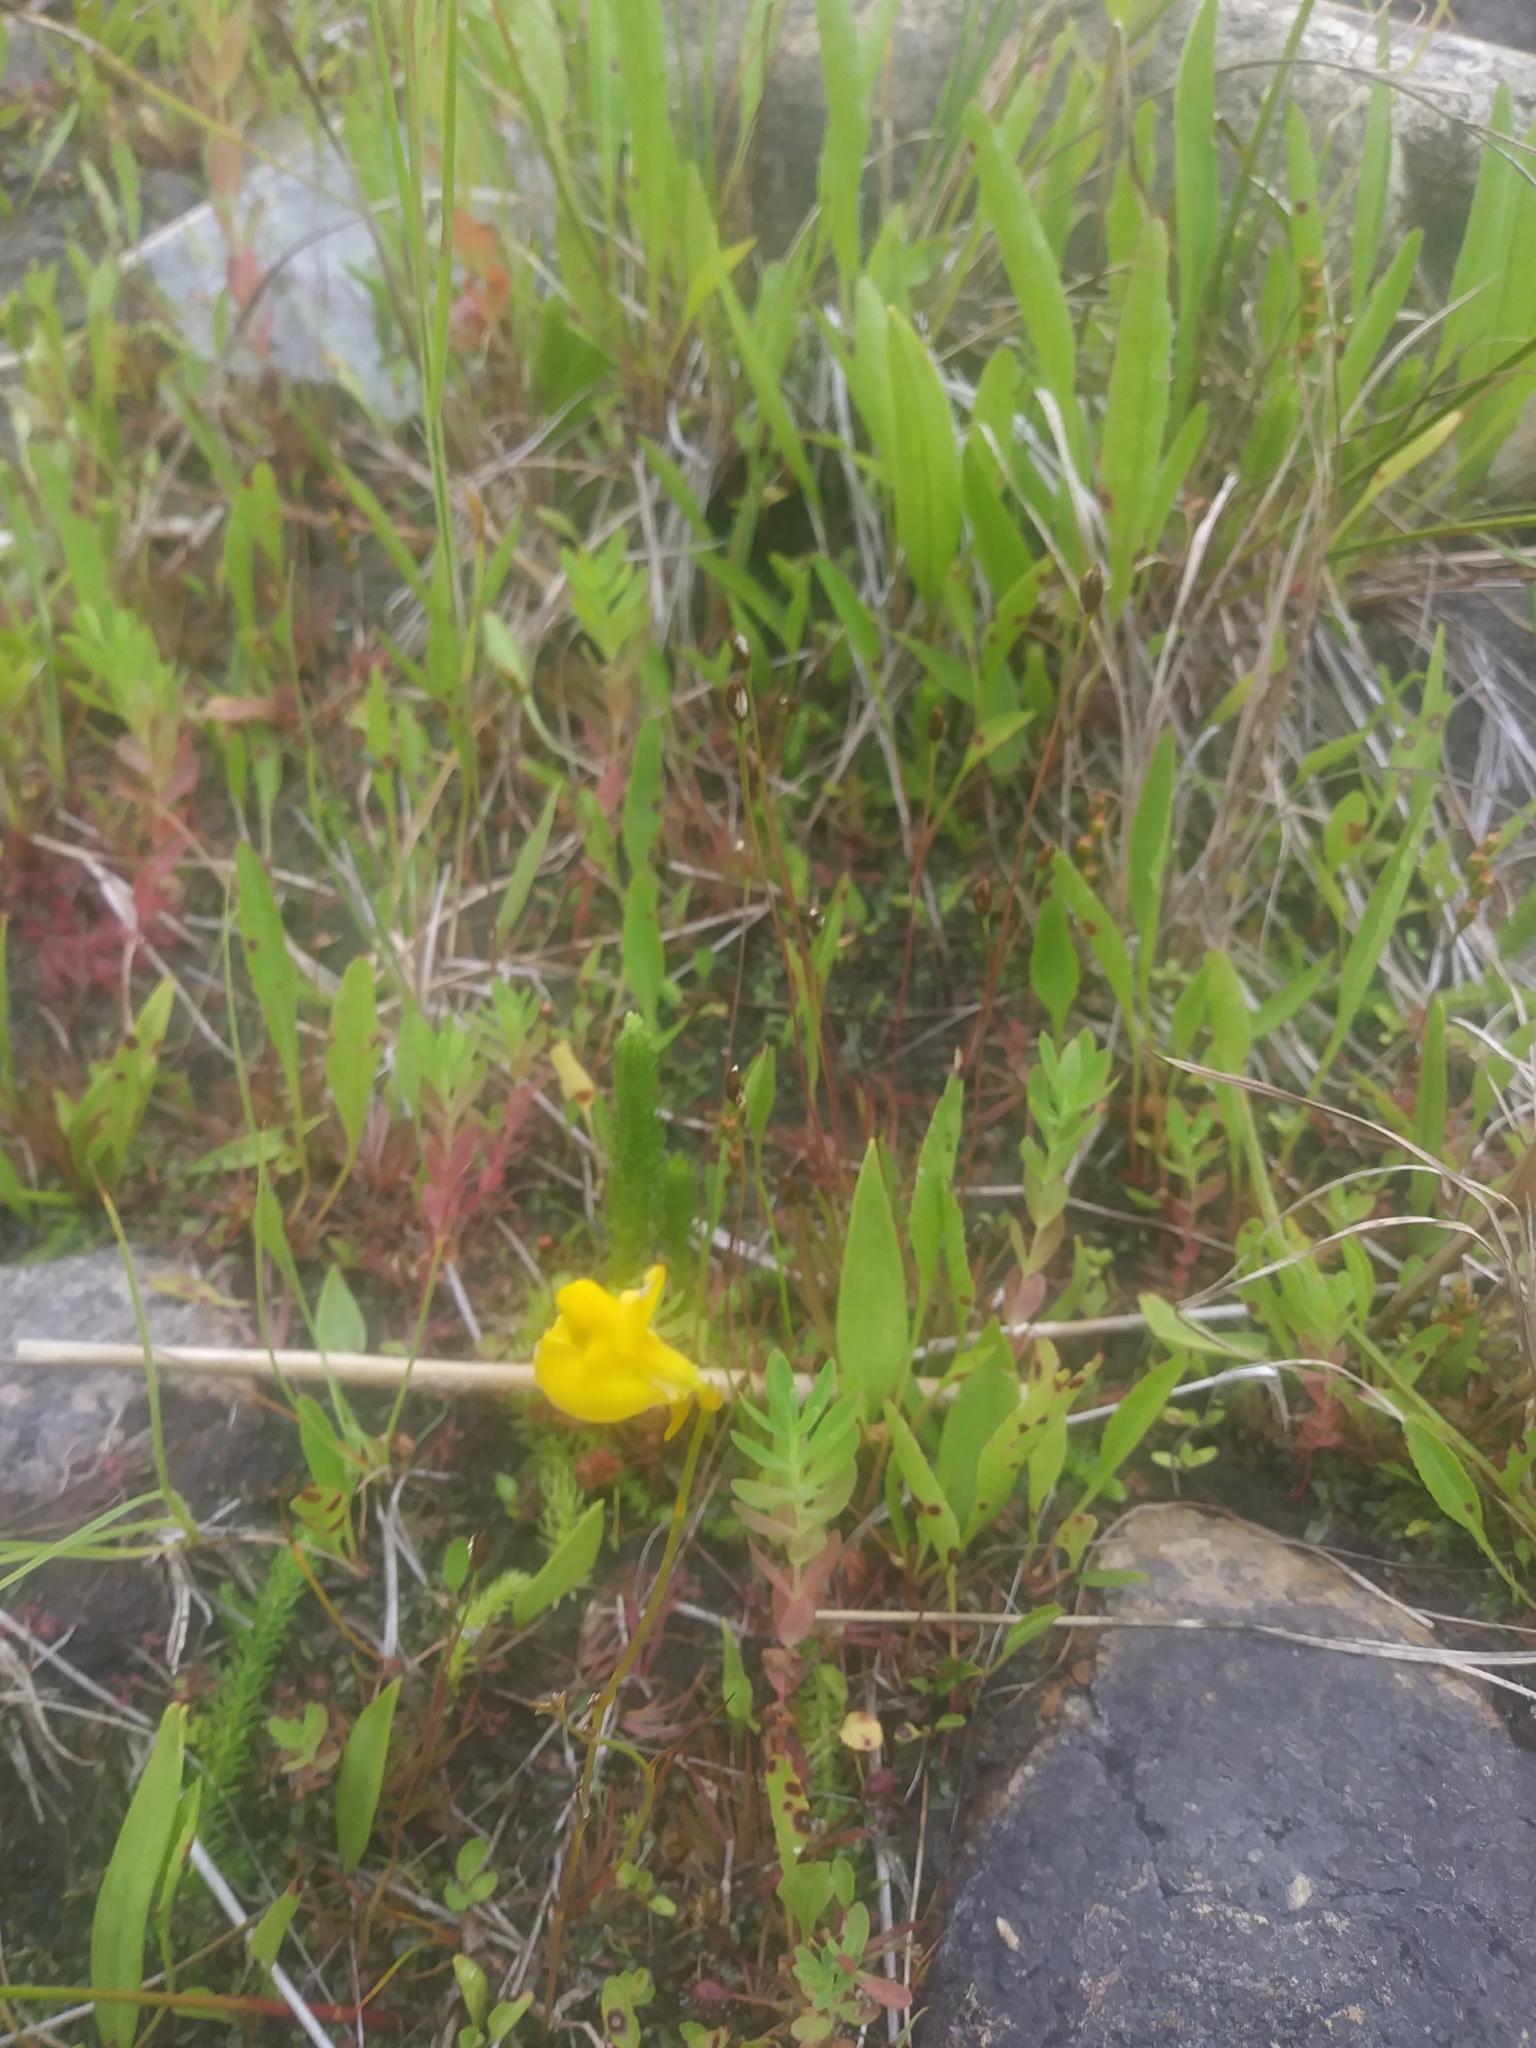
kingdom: Plantae
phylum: Tracheophyta
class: Magnoliopsida
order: Lamiales
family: Lentibulariaceae
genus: Utricularia
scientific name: Utricularia cornuta
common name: Horned bladderwort
